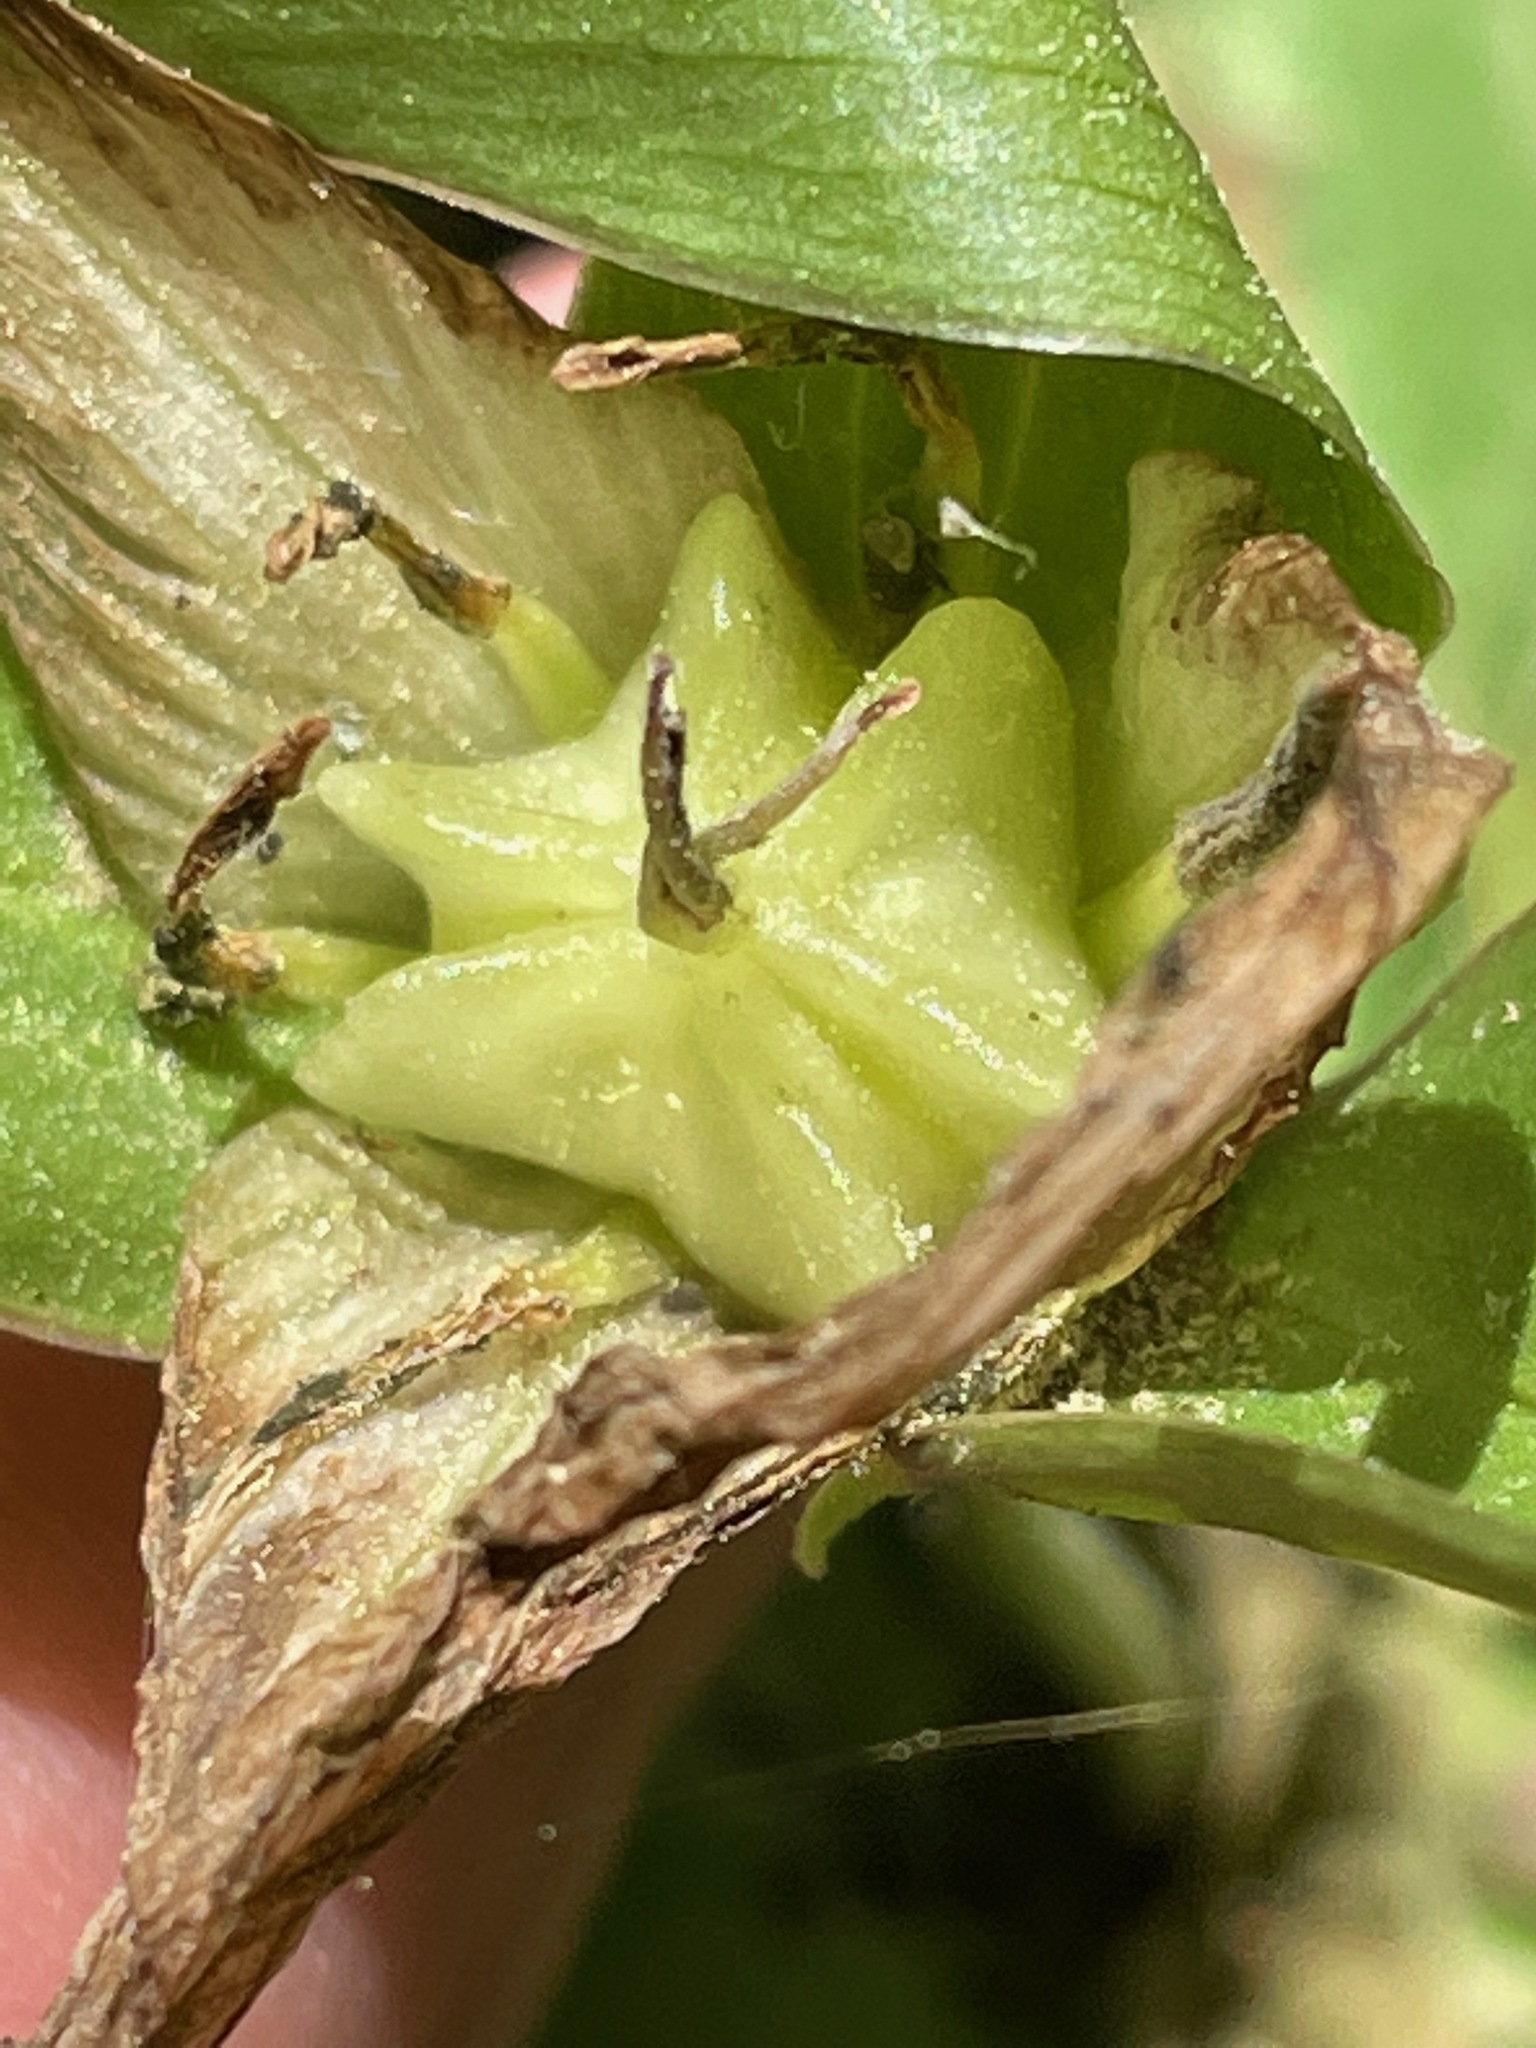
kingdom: Plantae
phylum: Tracheophyta
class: Liliopsida
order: Liliales
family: Melanthiaceae
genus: Trillium
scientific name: Trillium grandiflorum
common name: Great white trillium
